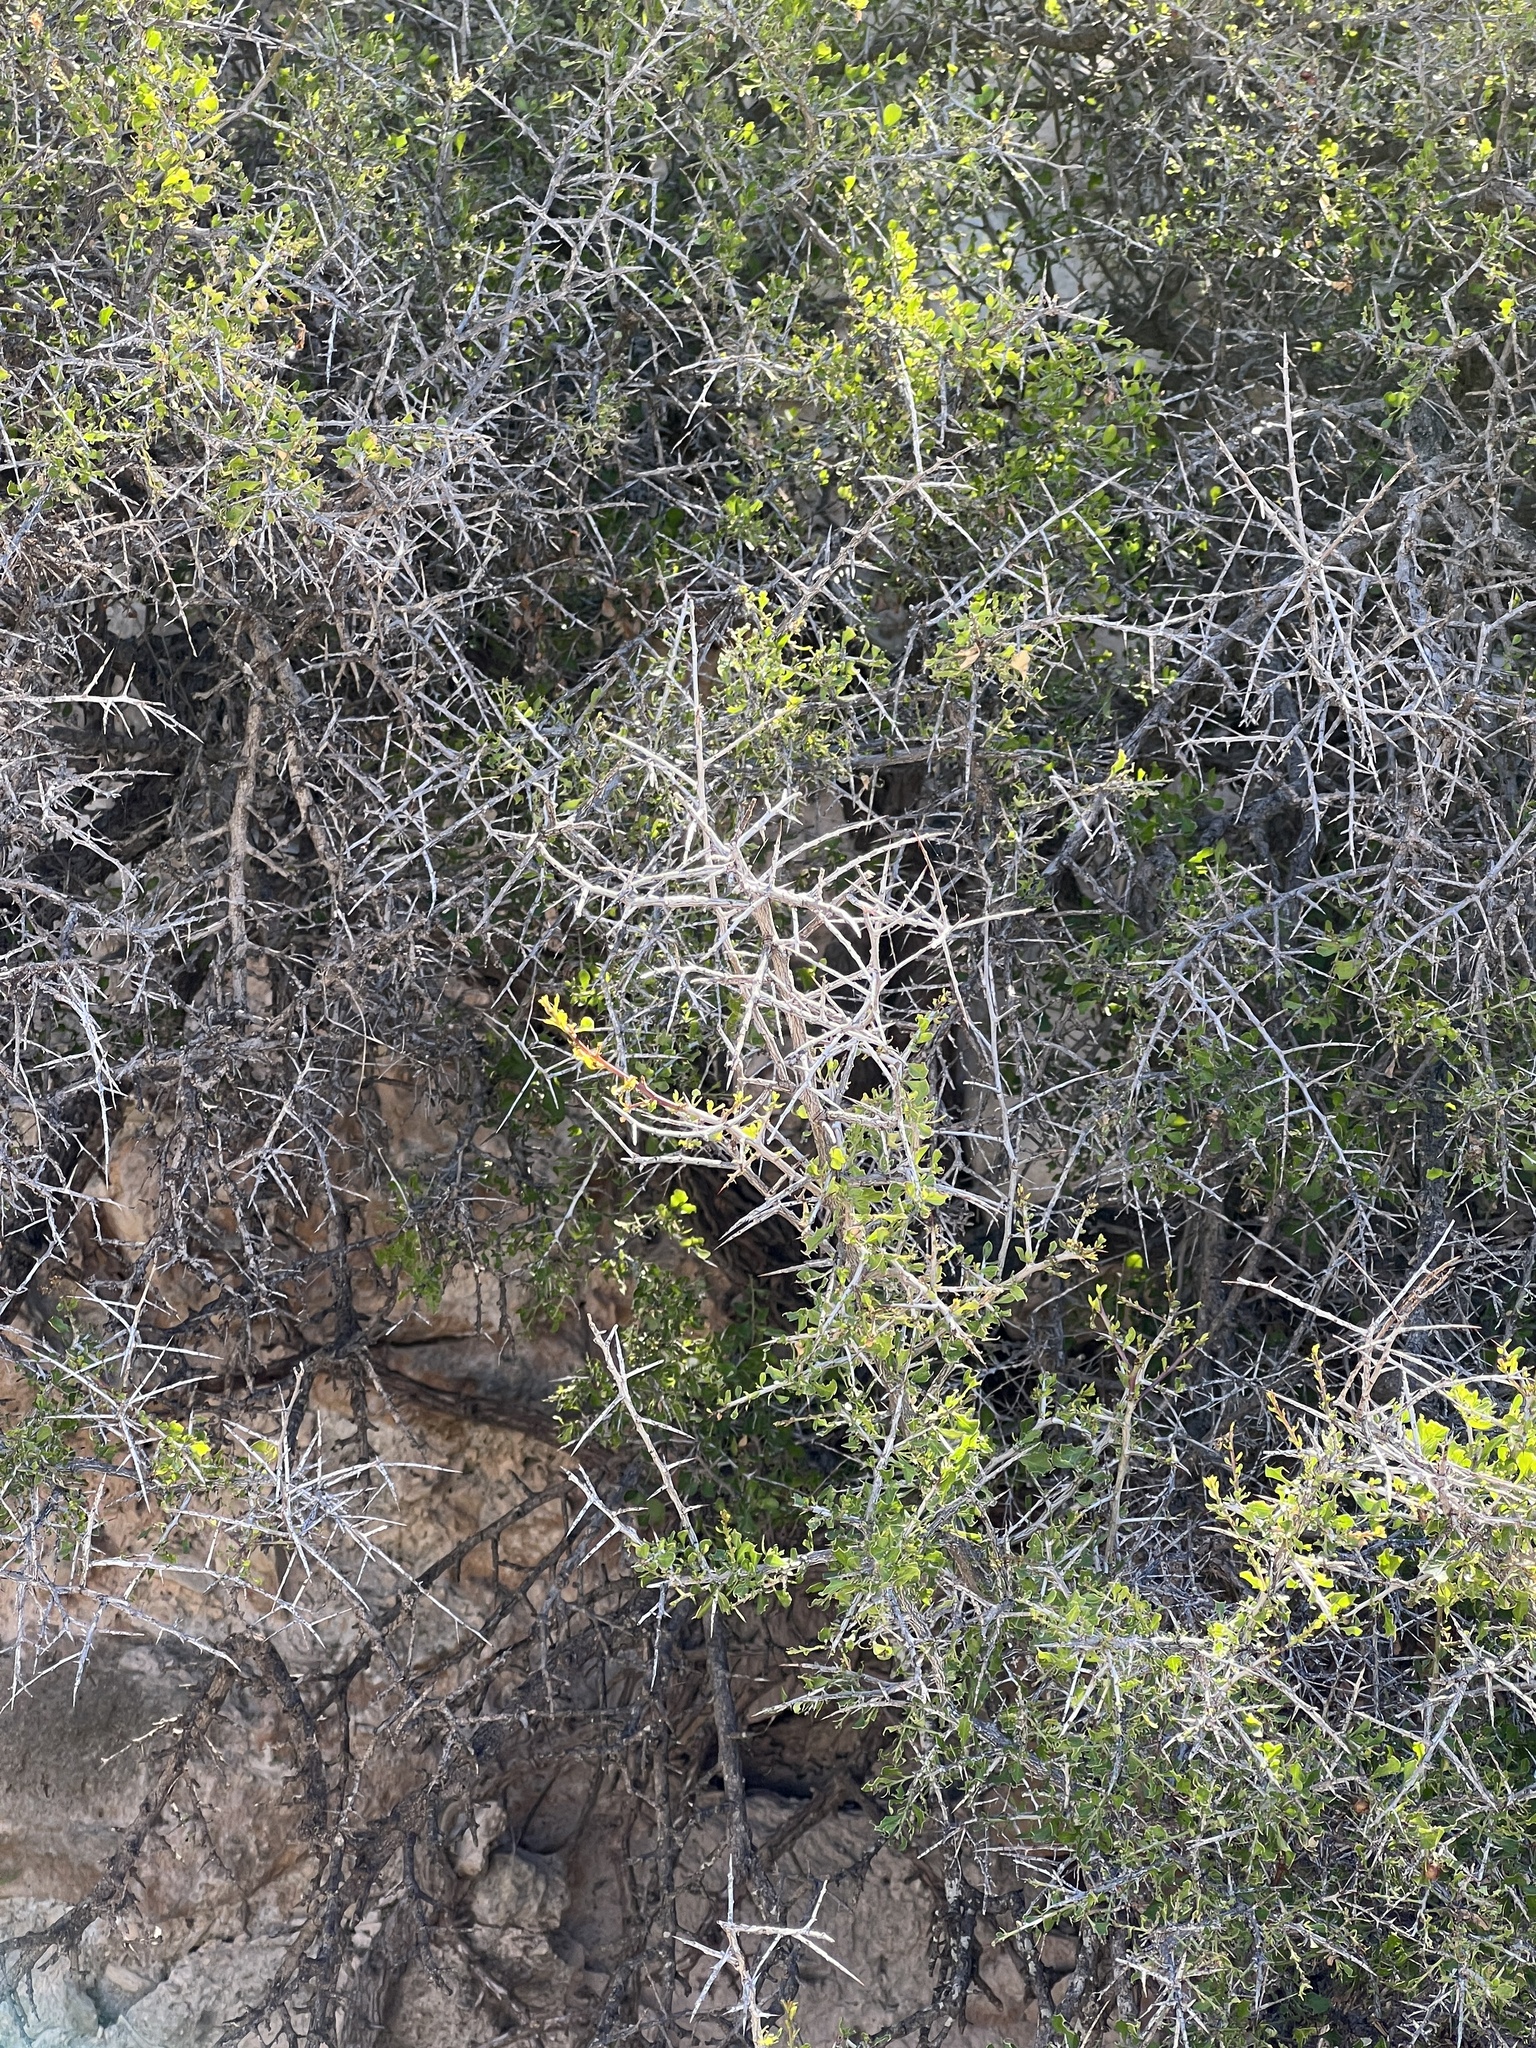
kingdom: Plantae
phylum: Tracheophyta
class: Magnoliopsida
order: Rosales
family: Rhamnaceae
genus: Condalia
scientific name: Condalia viridis
